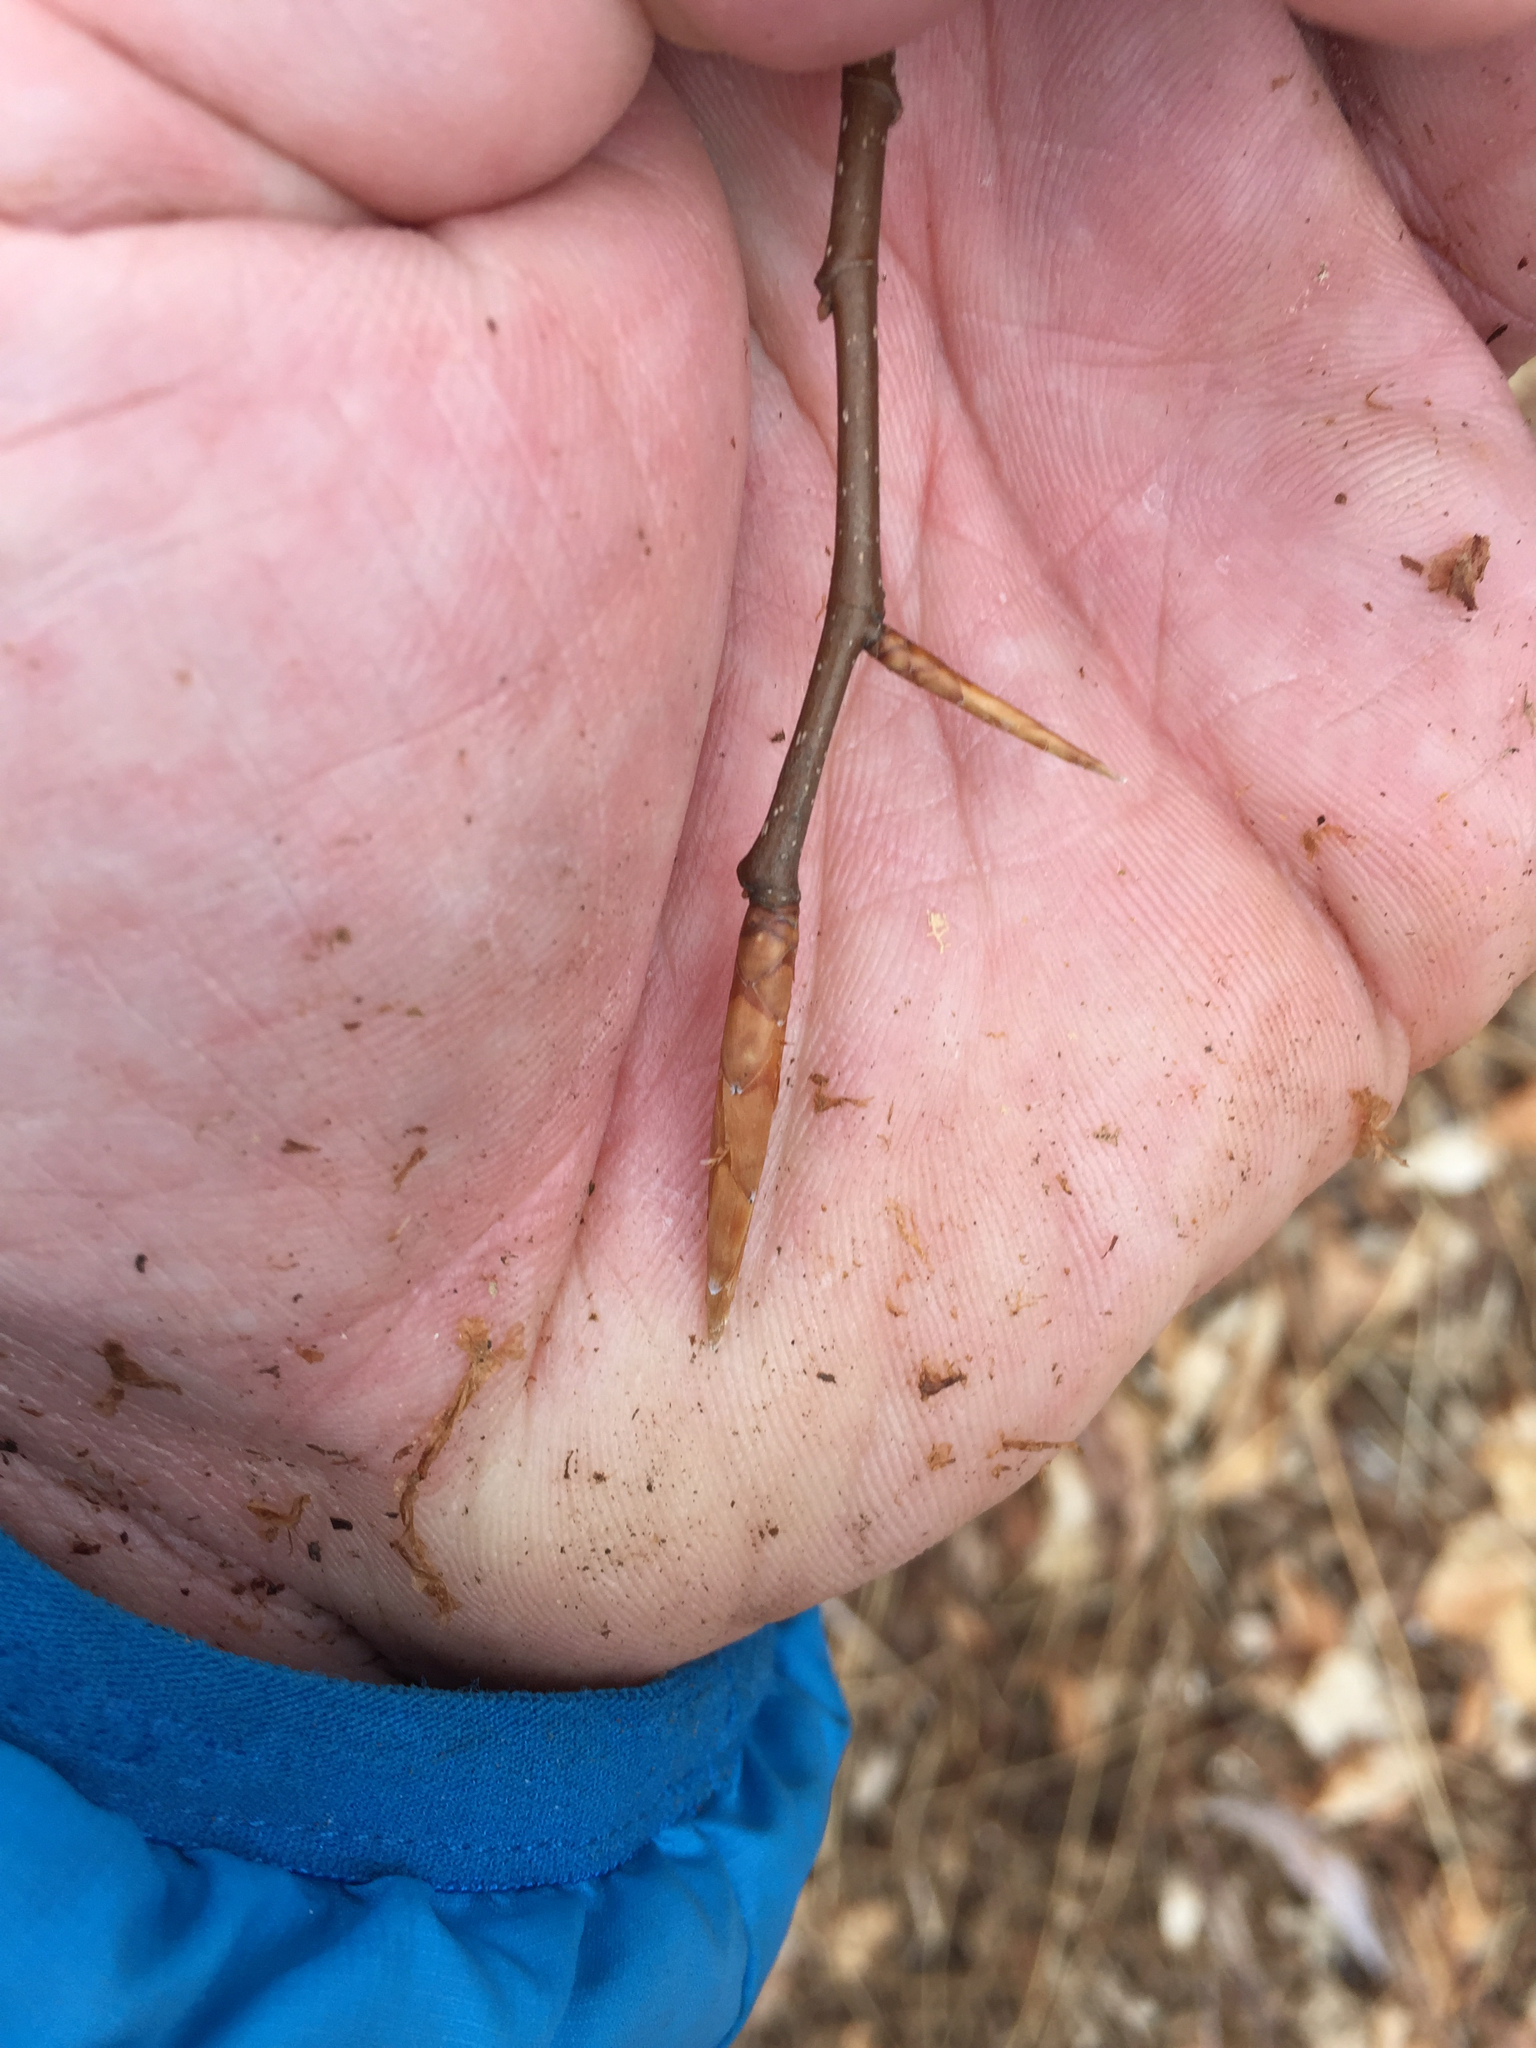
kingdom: Plantae
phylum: Tracheophyta
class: Magnoliopsida
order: Fagales
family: Fagaceae
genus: Fagus
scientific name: Fagus grandifolia
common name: American beech
